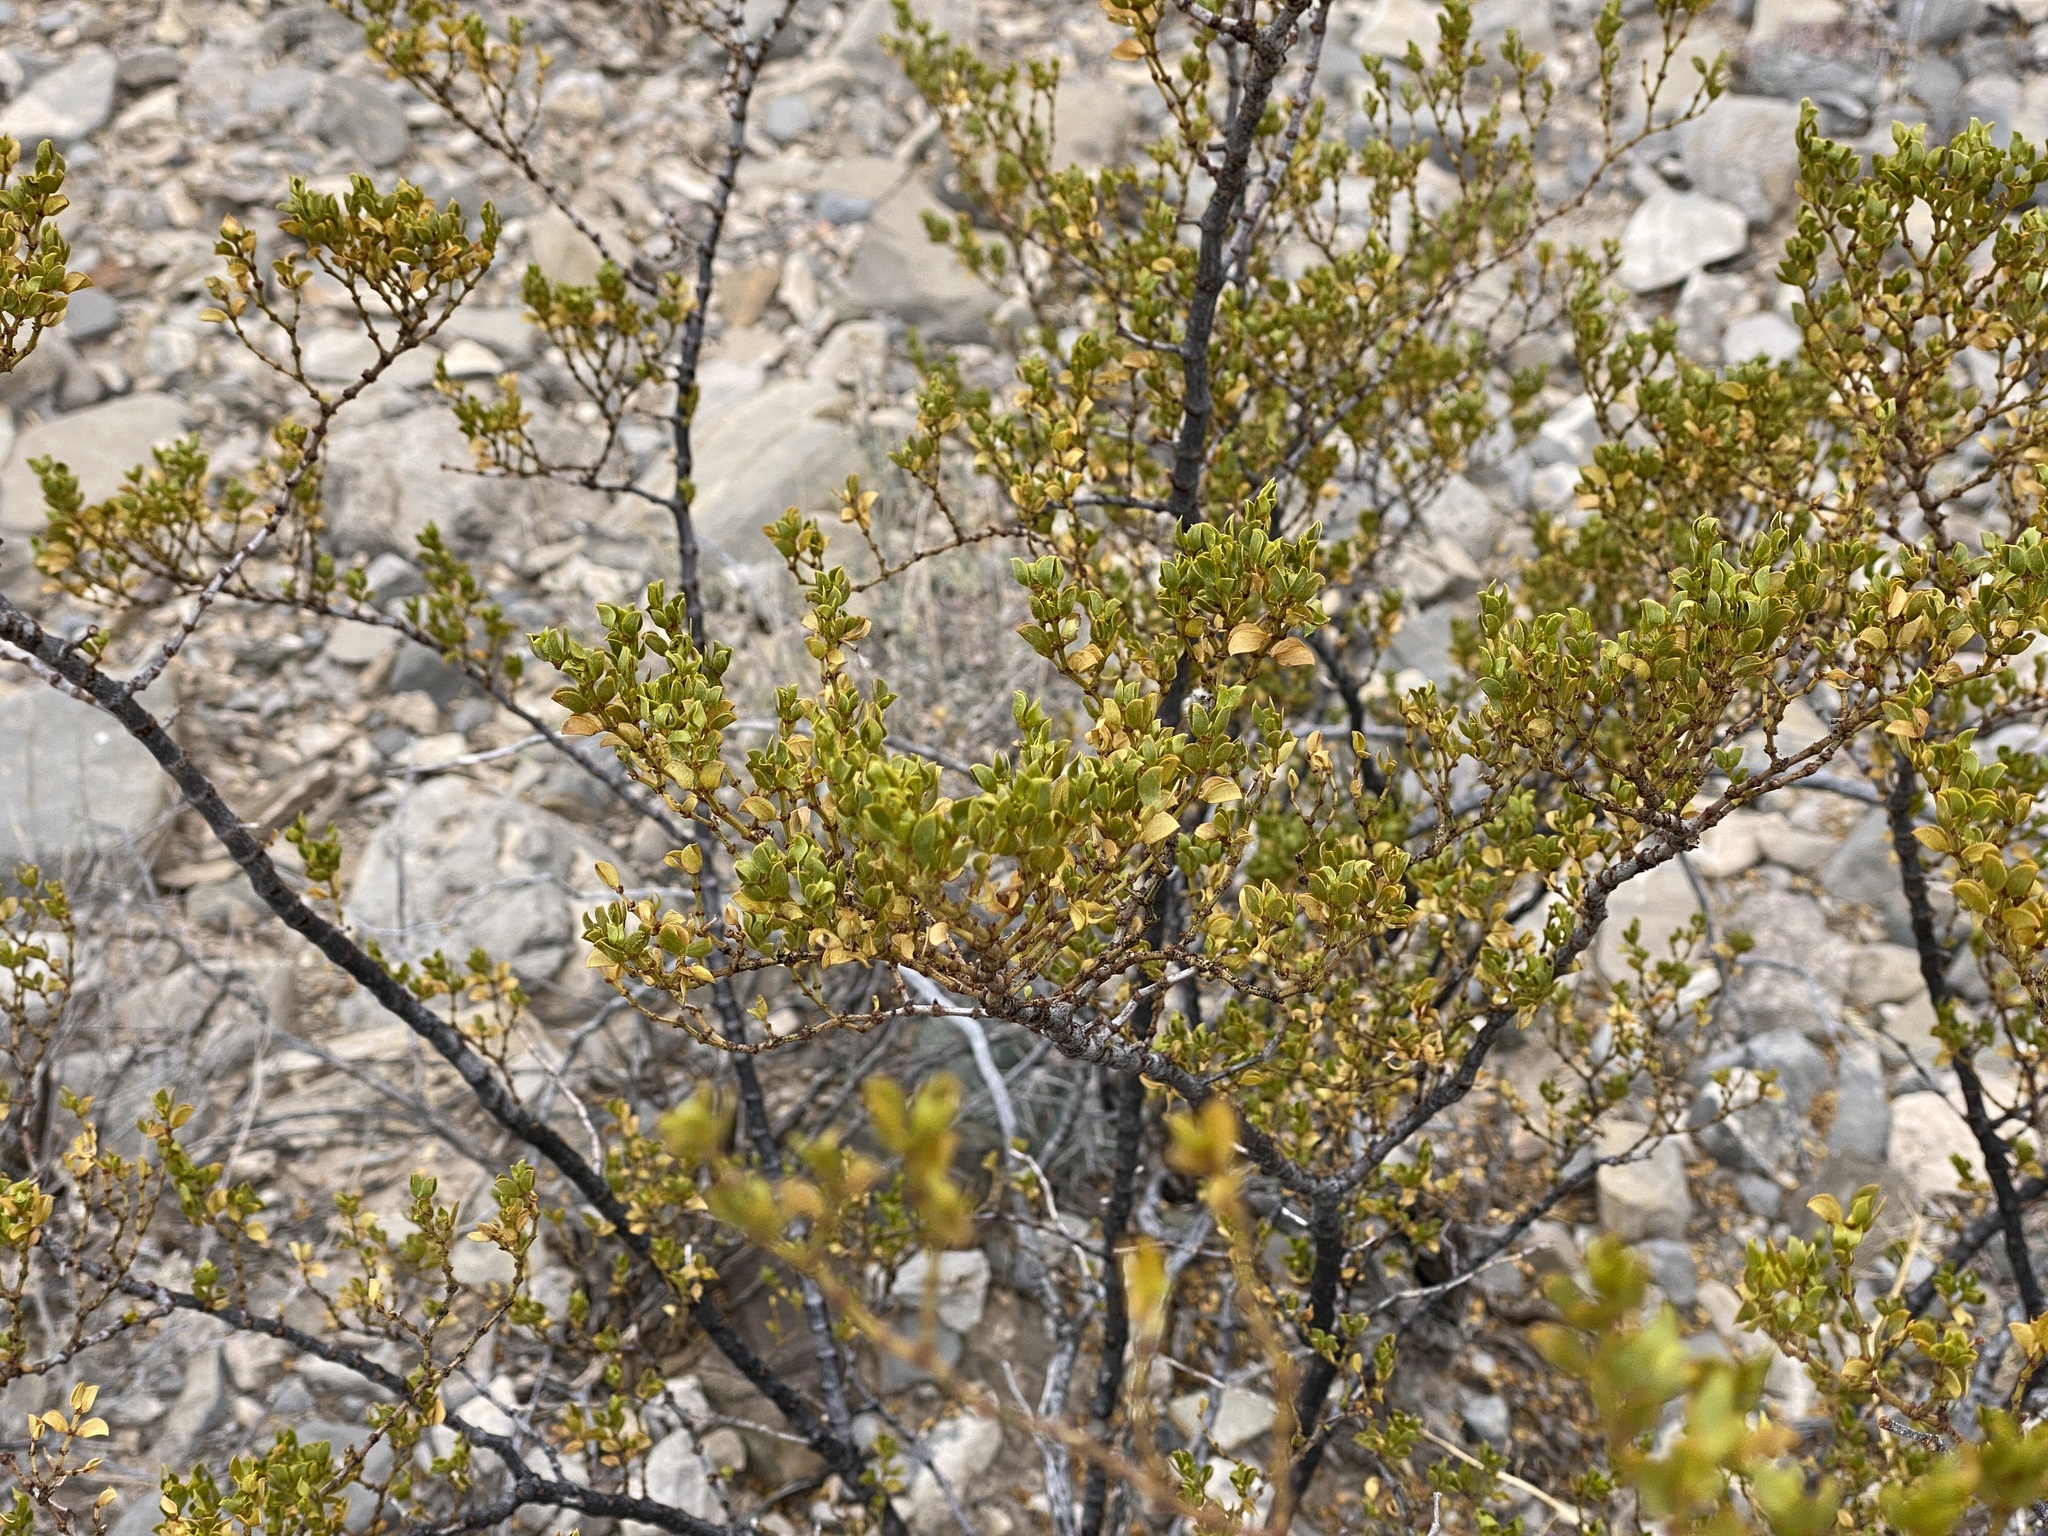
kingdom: Plantae
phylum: Tracheophyta
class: Magnoliopsida
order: Zygophyllales
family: Zygophyllaceae
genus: Larrea
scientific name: Larrea tridentata
